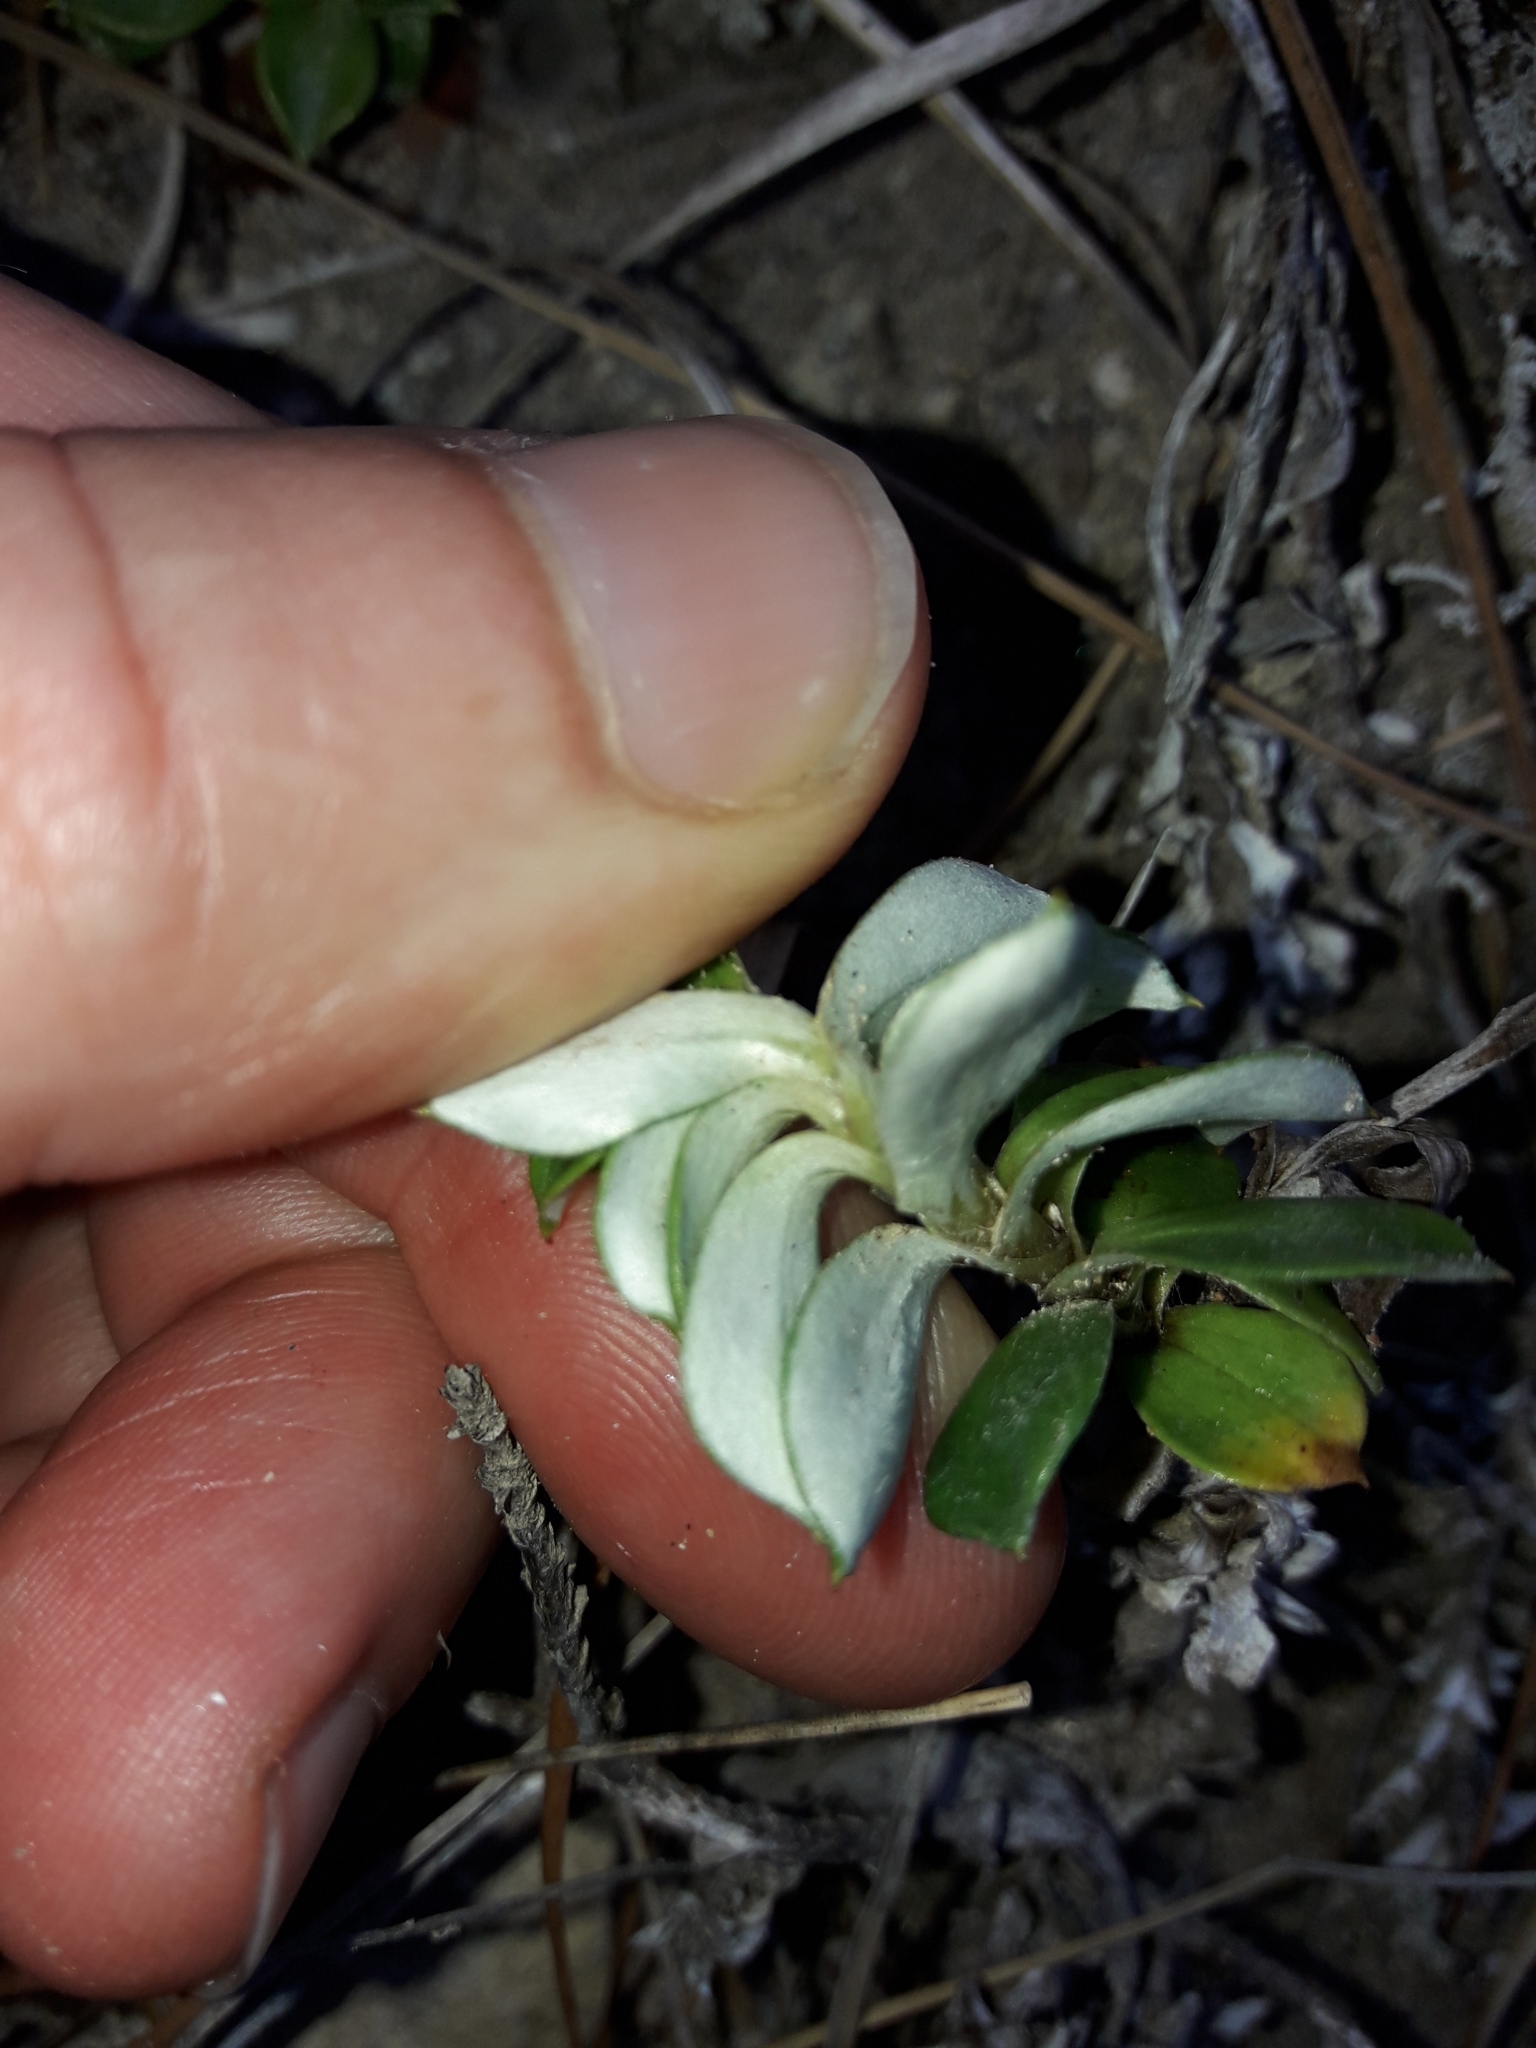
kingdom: Plantae
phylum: Tracheophyta
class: Magnoliopsida
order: Asterales
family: Asteraceae
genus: Anaphalioides
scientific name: Anaphalioides hookeri
